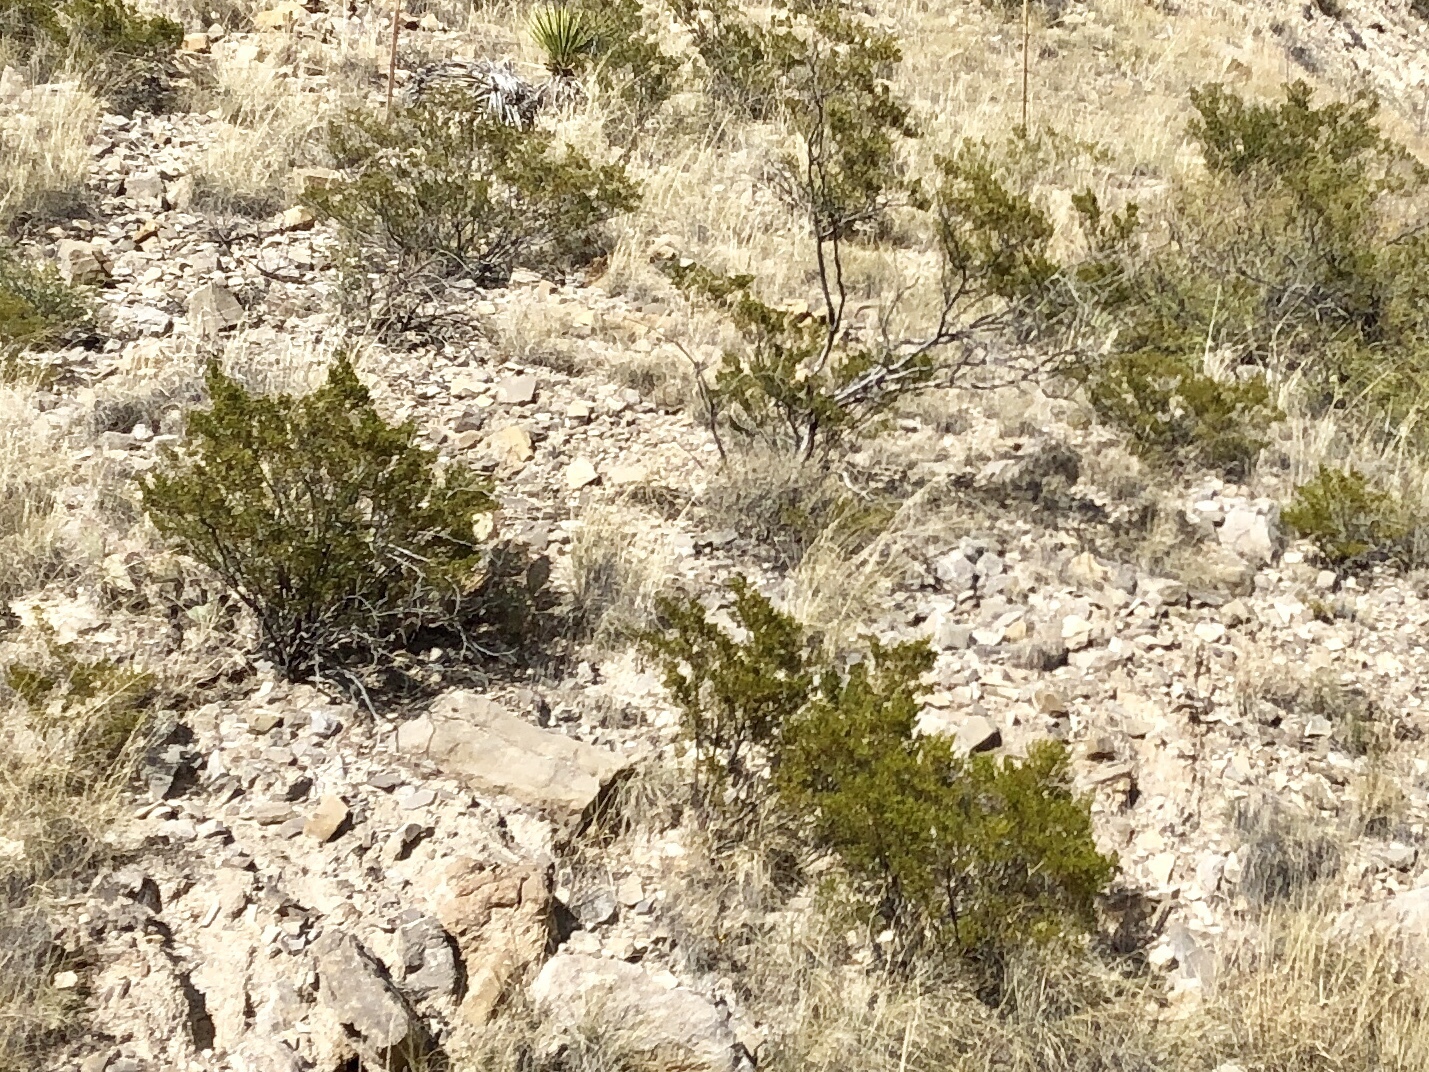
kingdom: Plantae
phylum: Tracheophyta
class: Magnoliopsida
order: Zygophyllales
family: Zygophyllaceae
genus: Larrea
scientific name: Larrea tridentata
